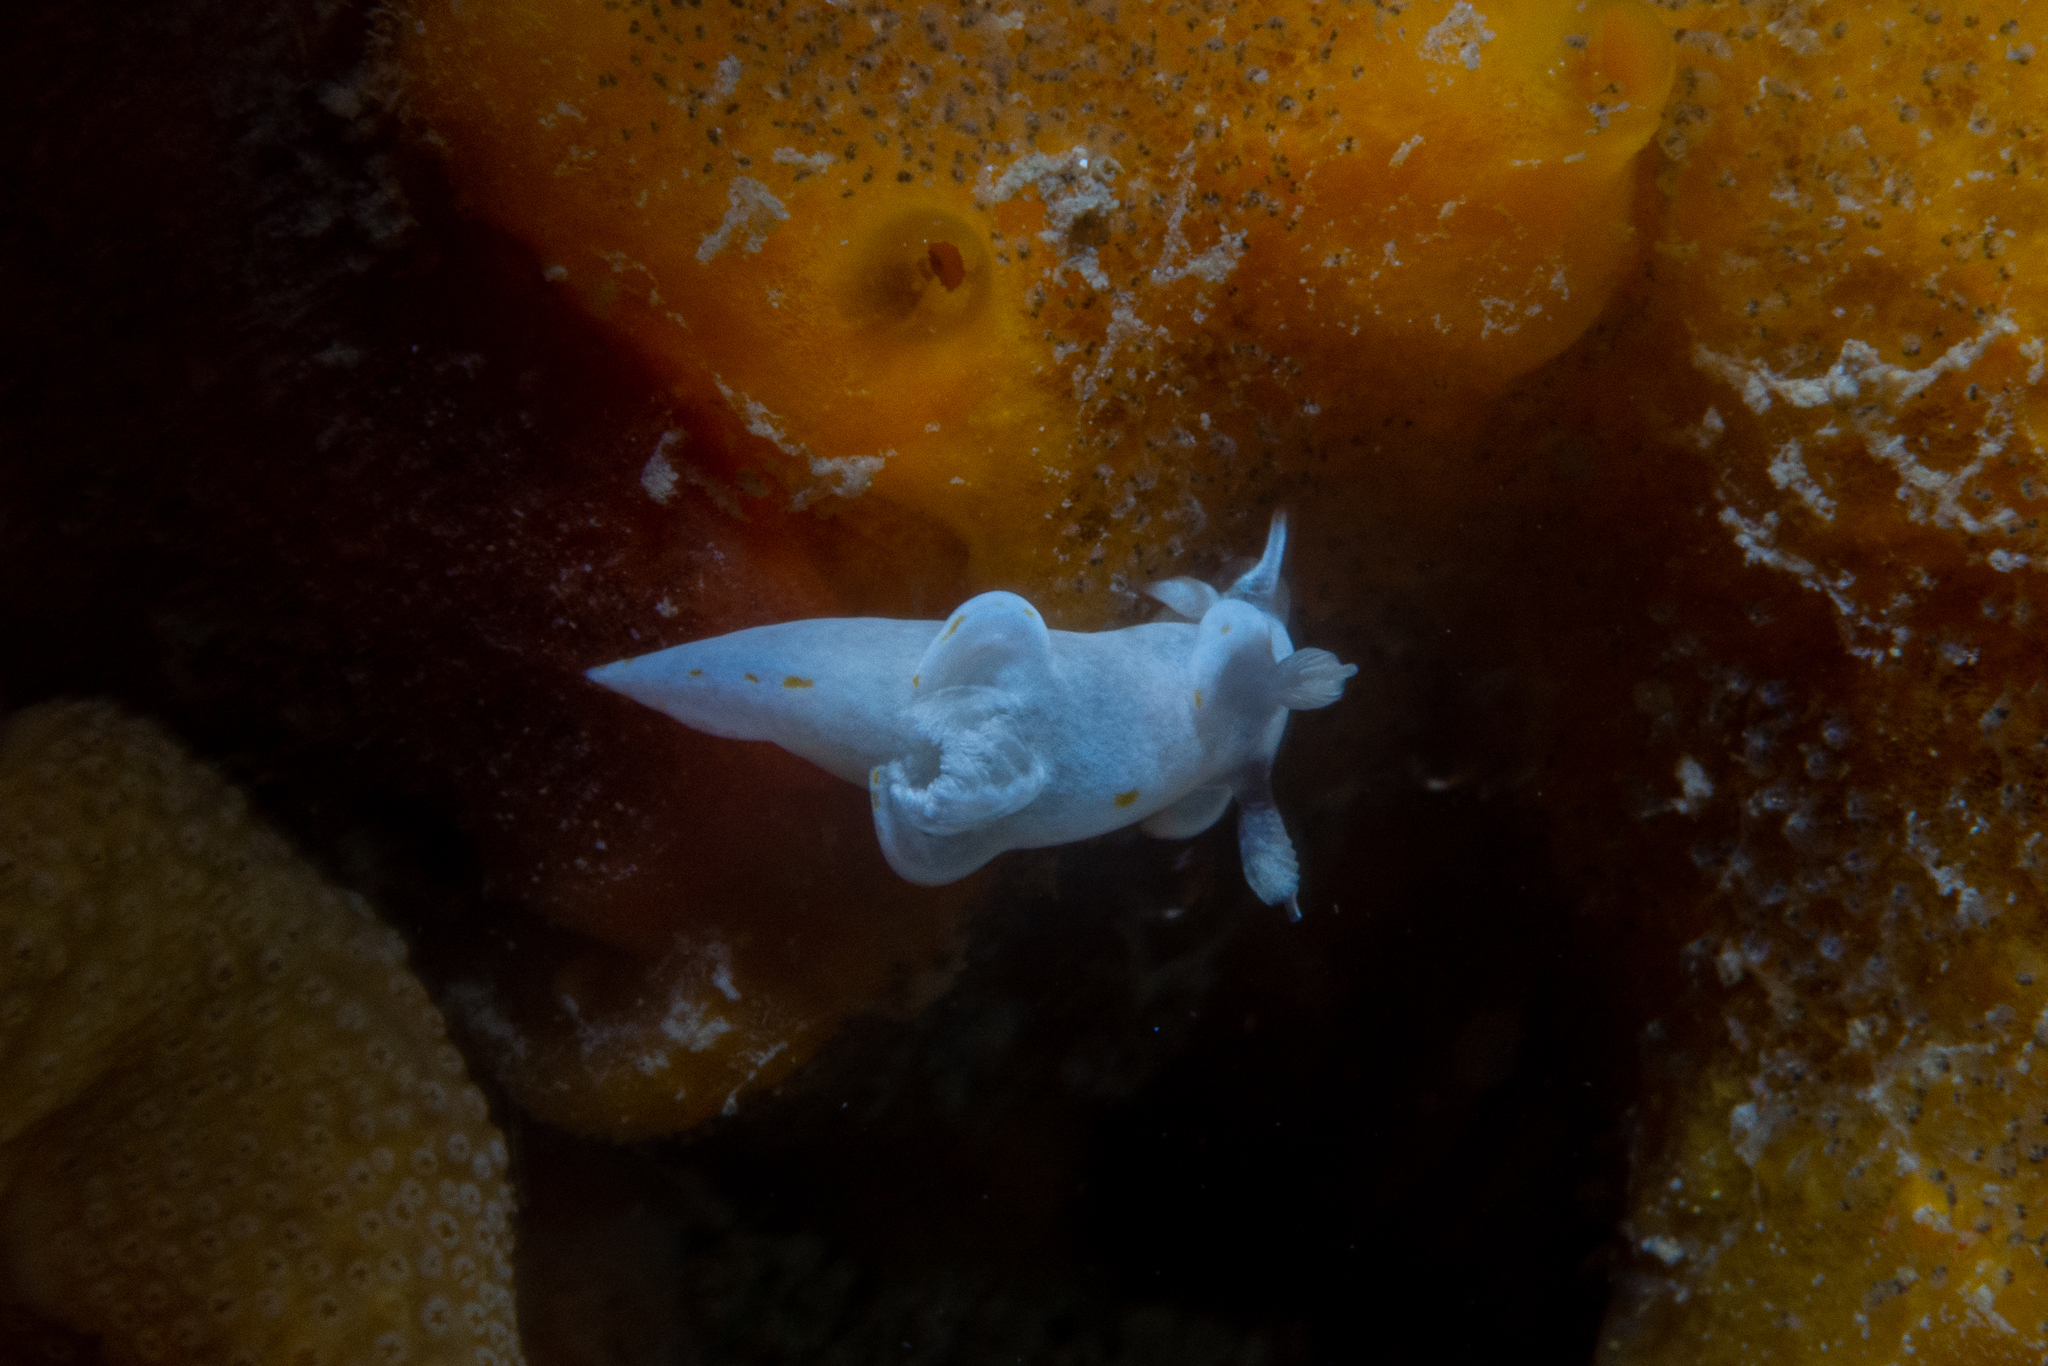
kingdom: Animalia
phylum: Mollusca
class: Gastropoda
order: Nudibranchia
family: Goniodorididae
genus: Trapania
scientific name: Trapania aureopunctata
